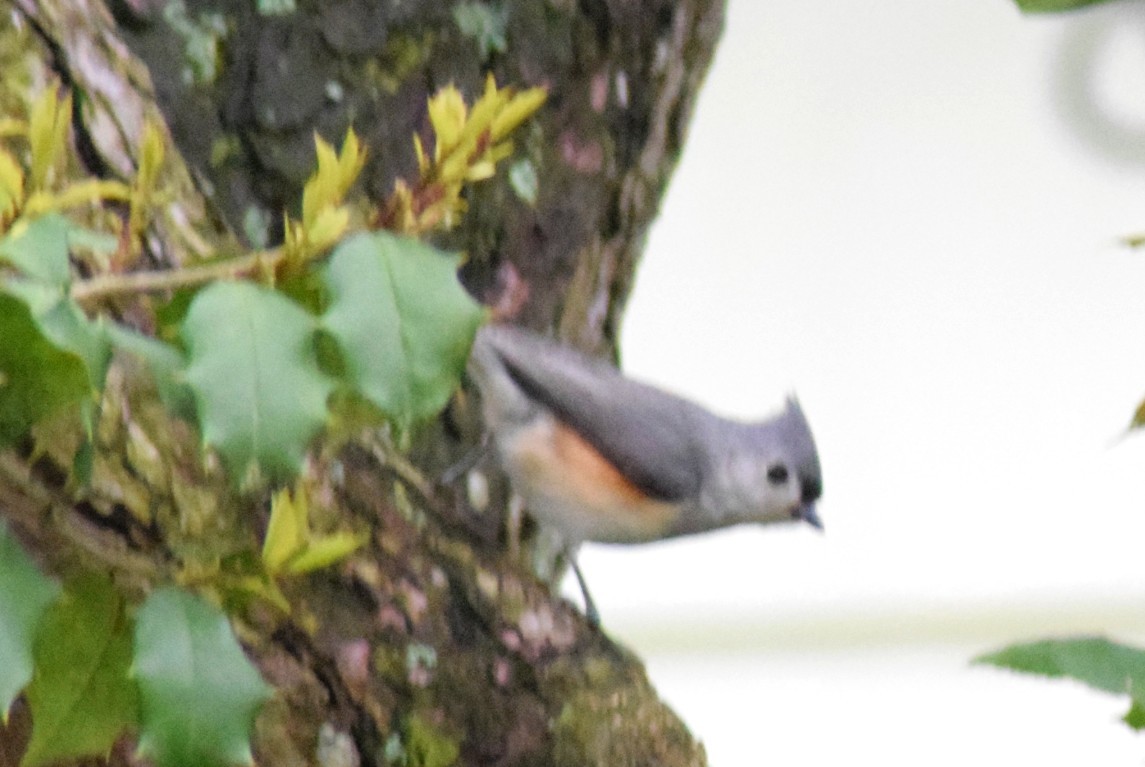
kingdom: Animalia
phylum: Chordata
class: Aves
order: Passeriformes
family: Paridae
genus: Baeolophus
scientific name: Baeolophus bicolor
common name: Tufted titmouse
